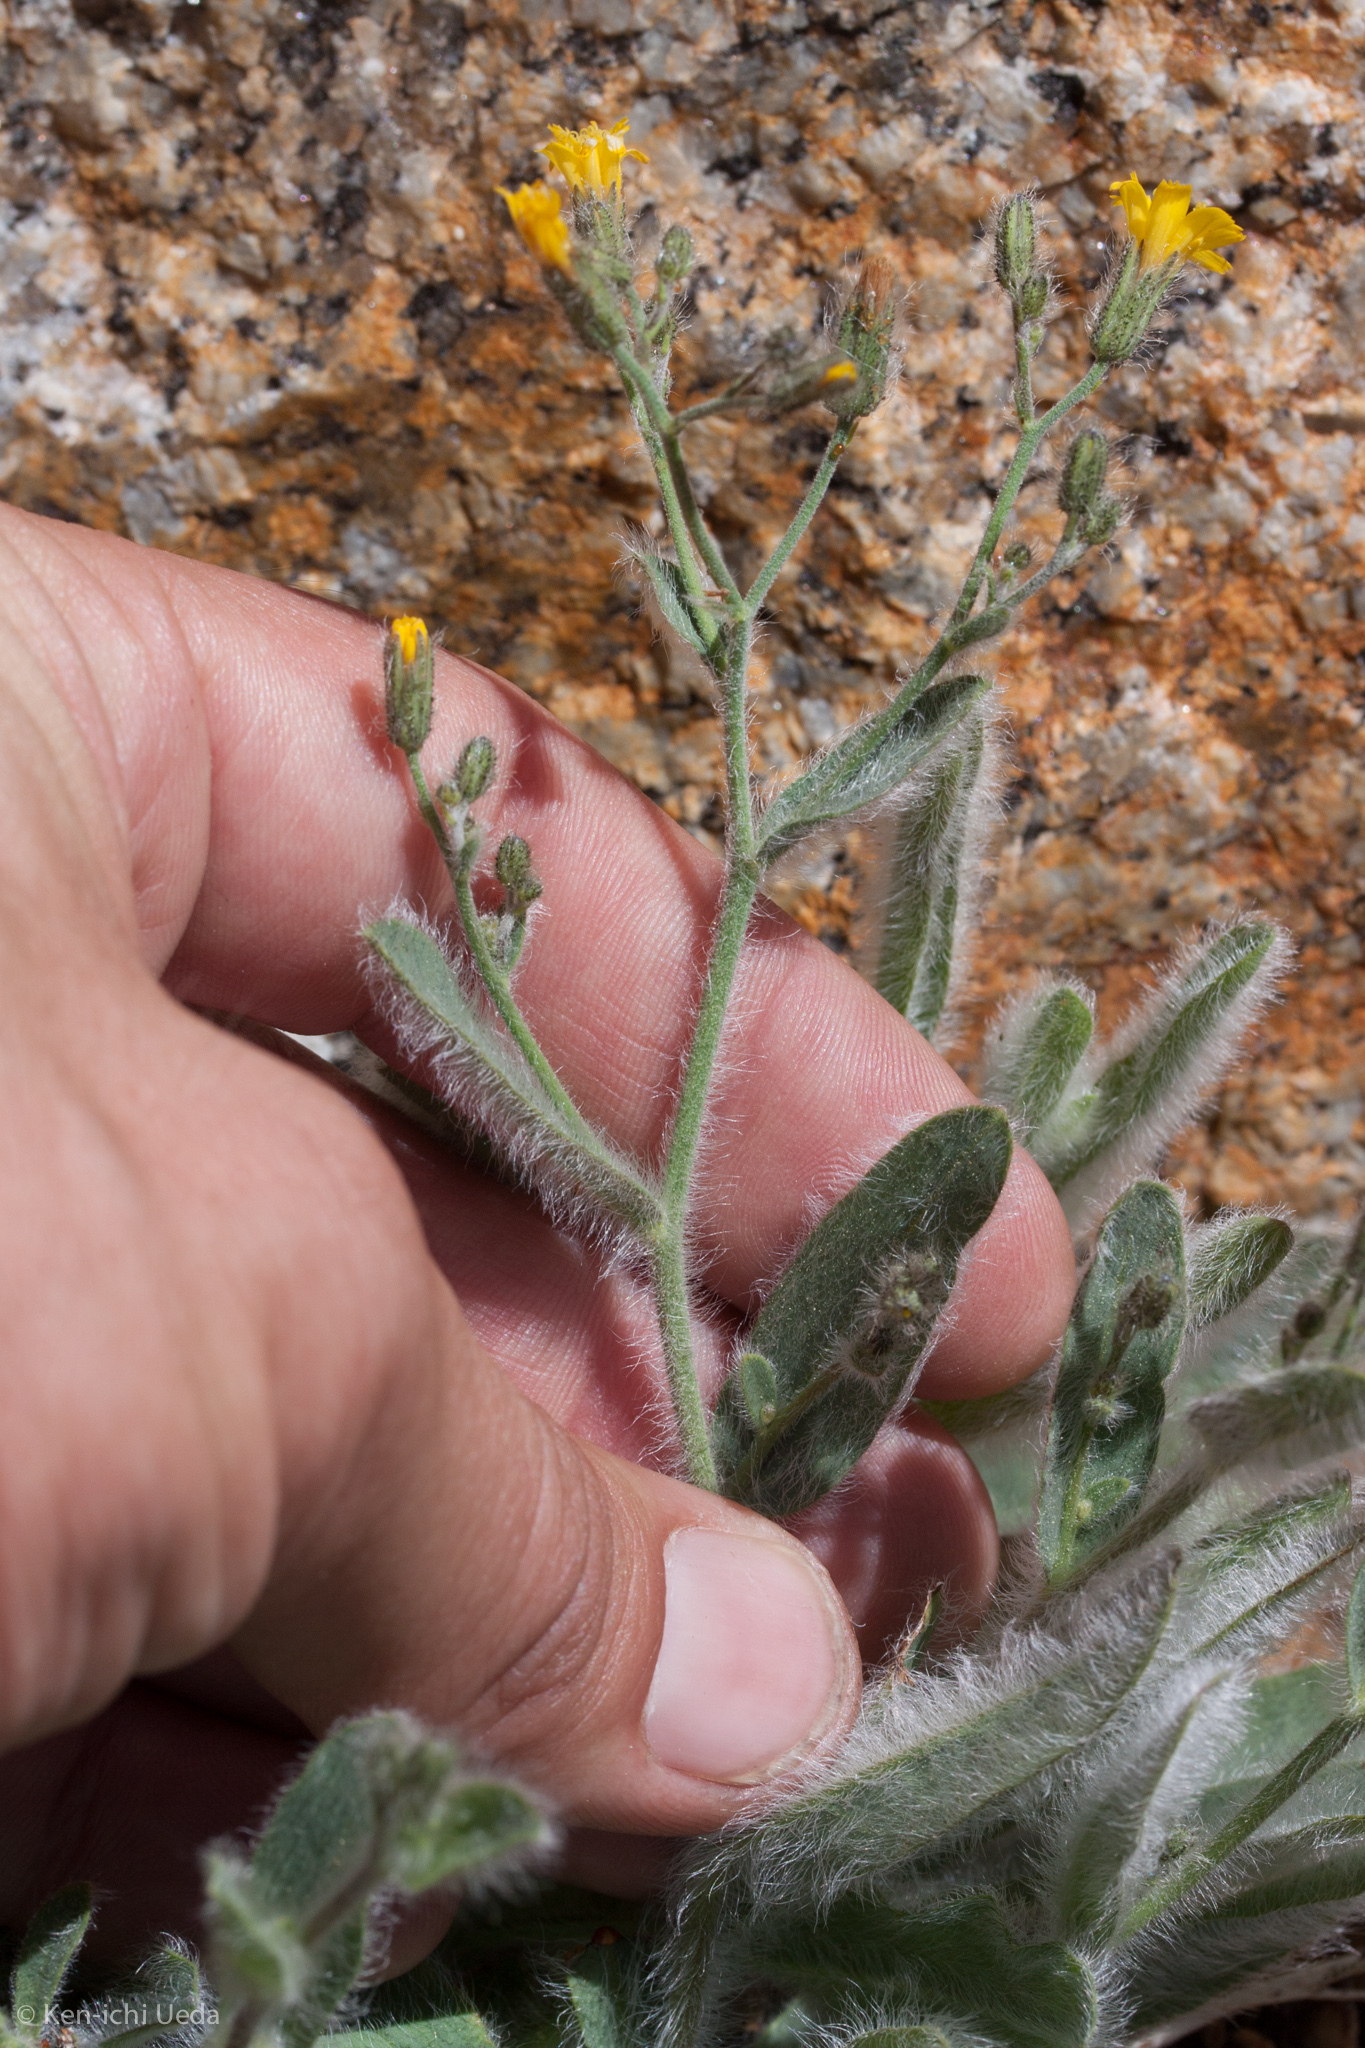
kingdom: Plantae
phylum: Tracheophyta
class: Magnoliopsida
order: Asterales
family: Asteraceae
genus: Hieracium
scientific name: Hieracium horridum
